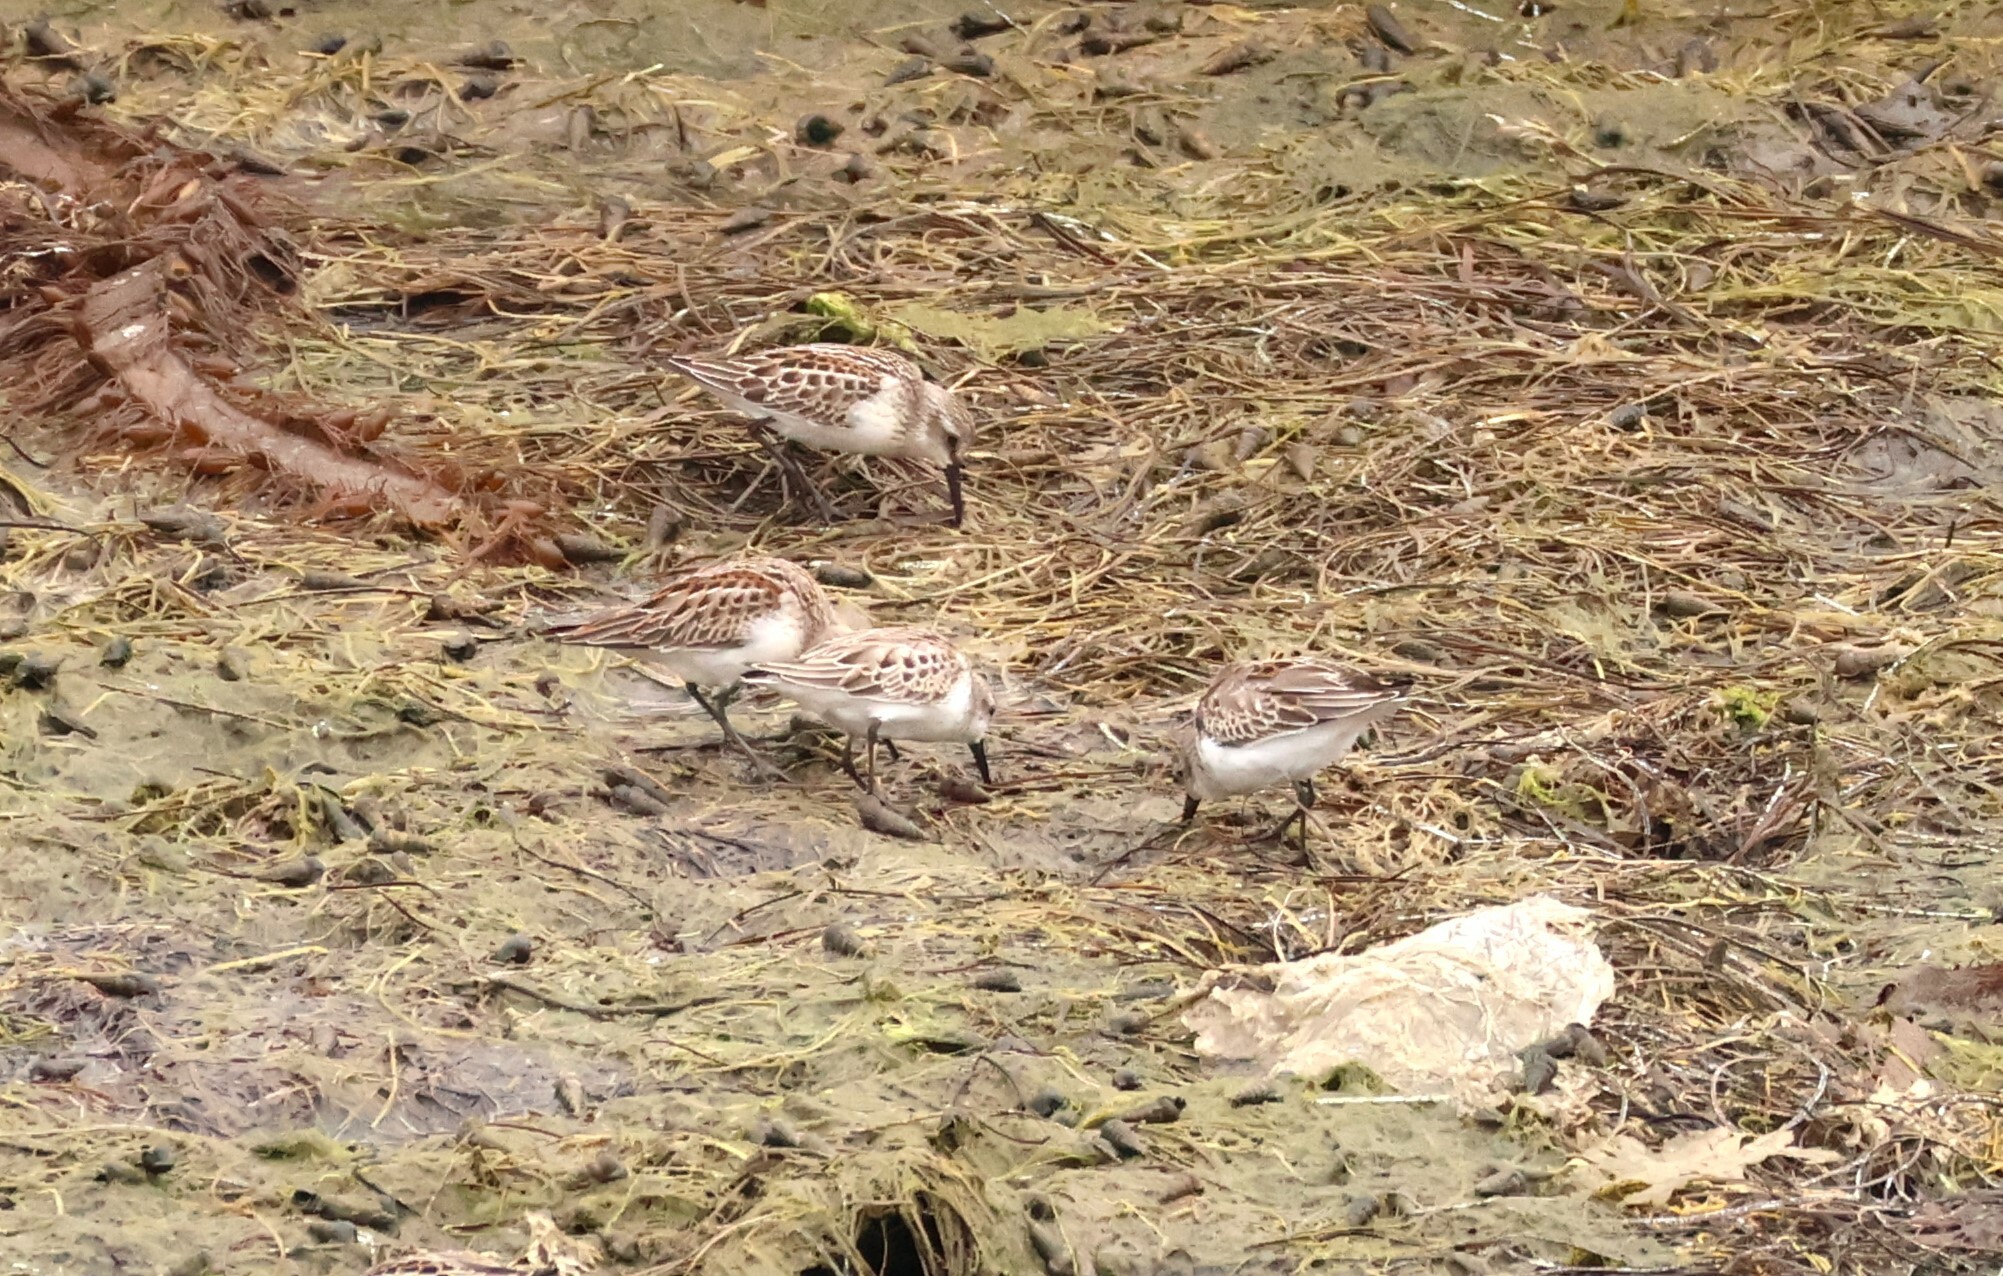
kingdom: Animalia
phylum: Chordata
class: Aves
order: Charadriiformes
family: Scolopacidae
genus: Calidris
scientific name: Calidris mauri
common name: Western sandpiper
